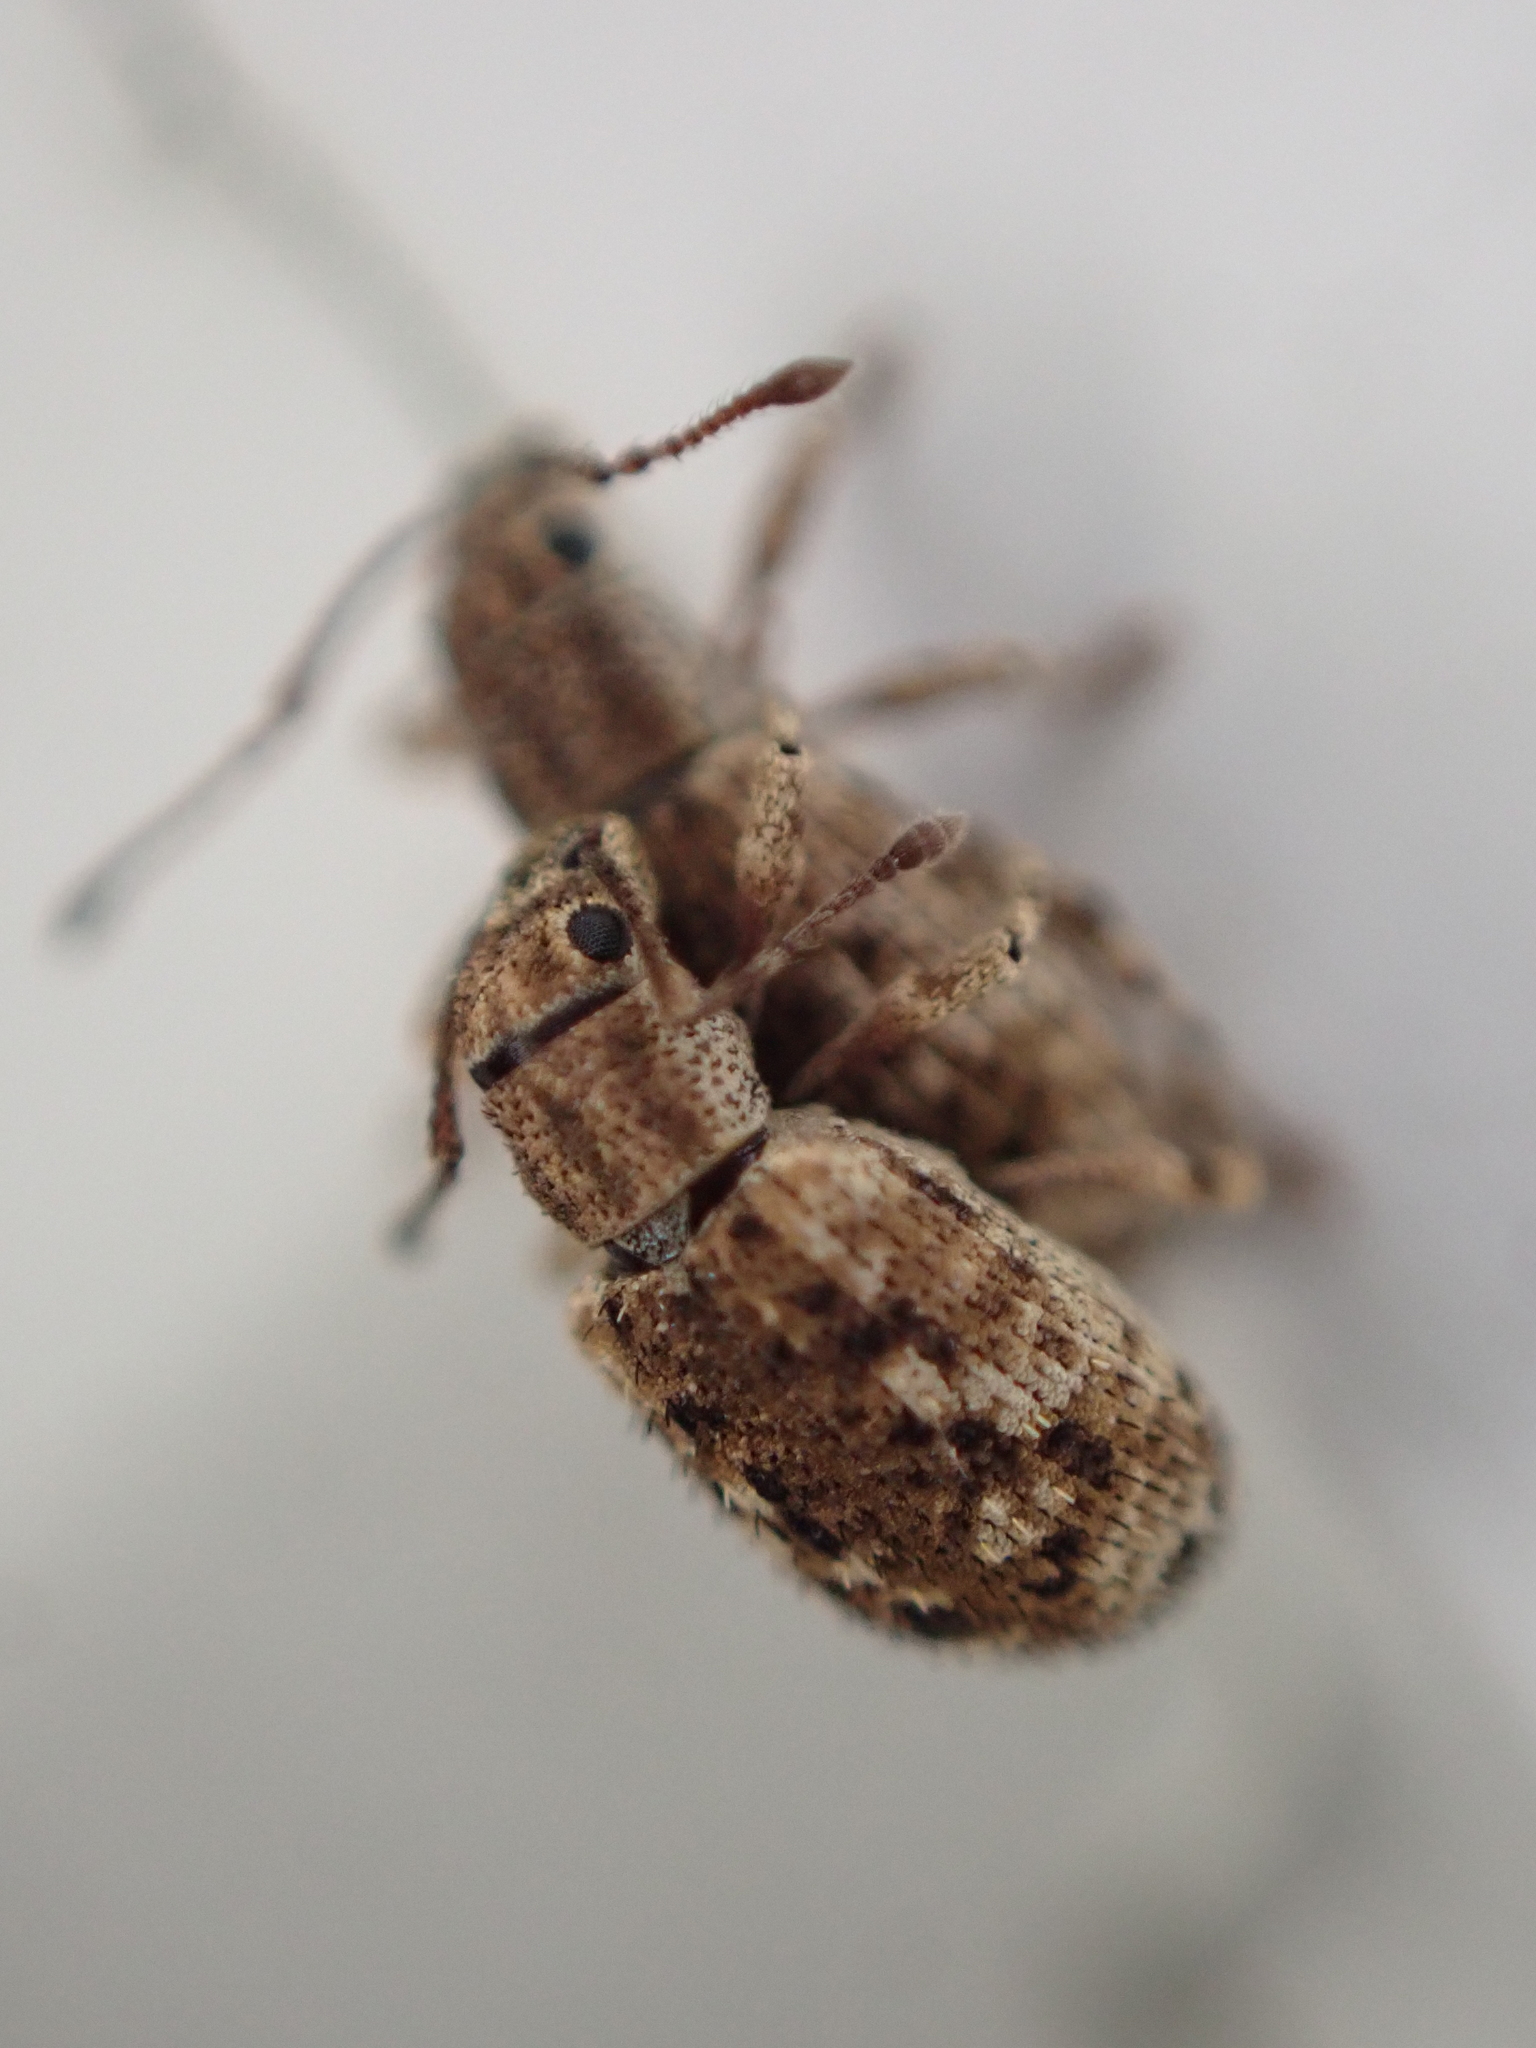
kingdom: Animalia
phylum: Arthropoda
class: Insecta
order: Coleoptera
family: Curculionidae
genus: Pseudoedophrys
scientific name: Pseudoedophrys hilleri
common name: Weevil
